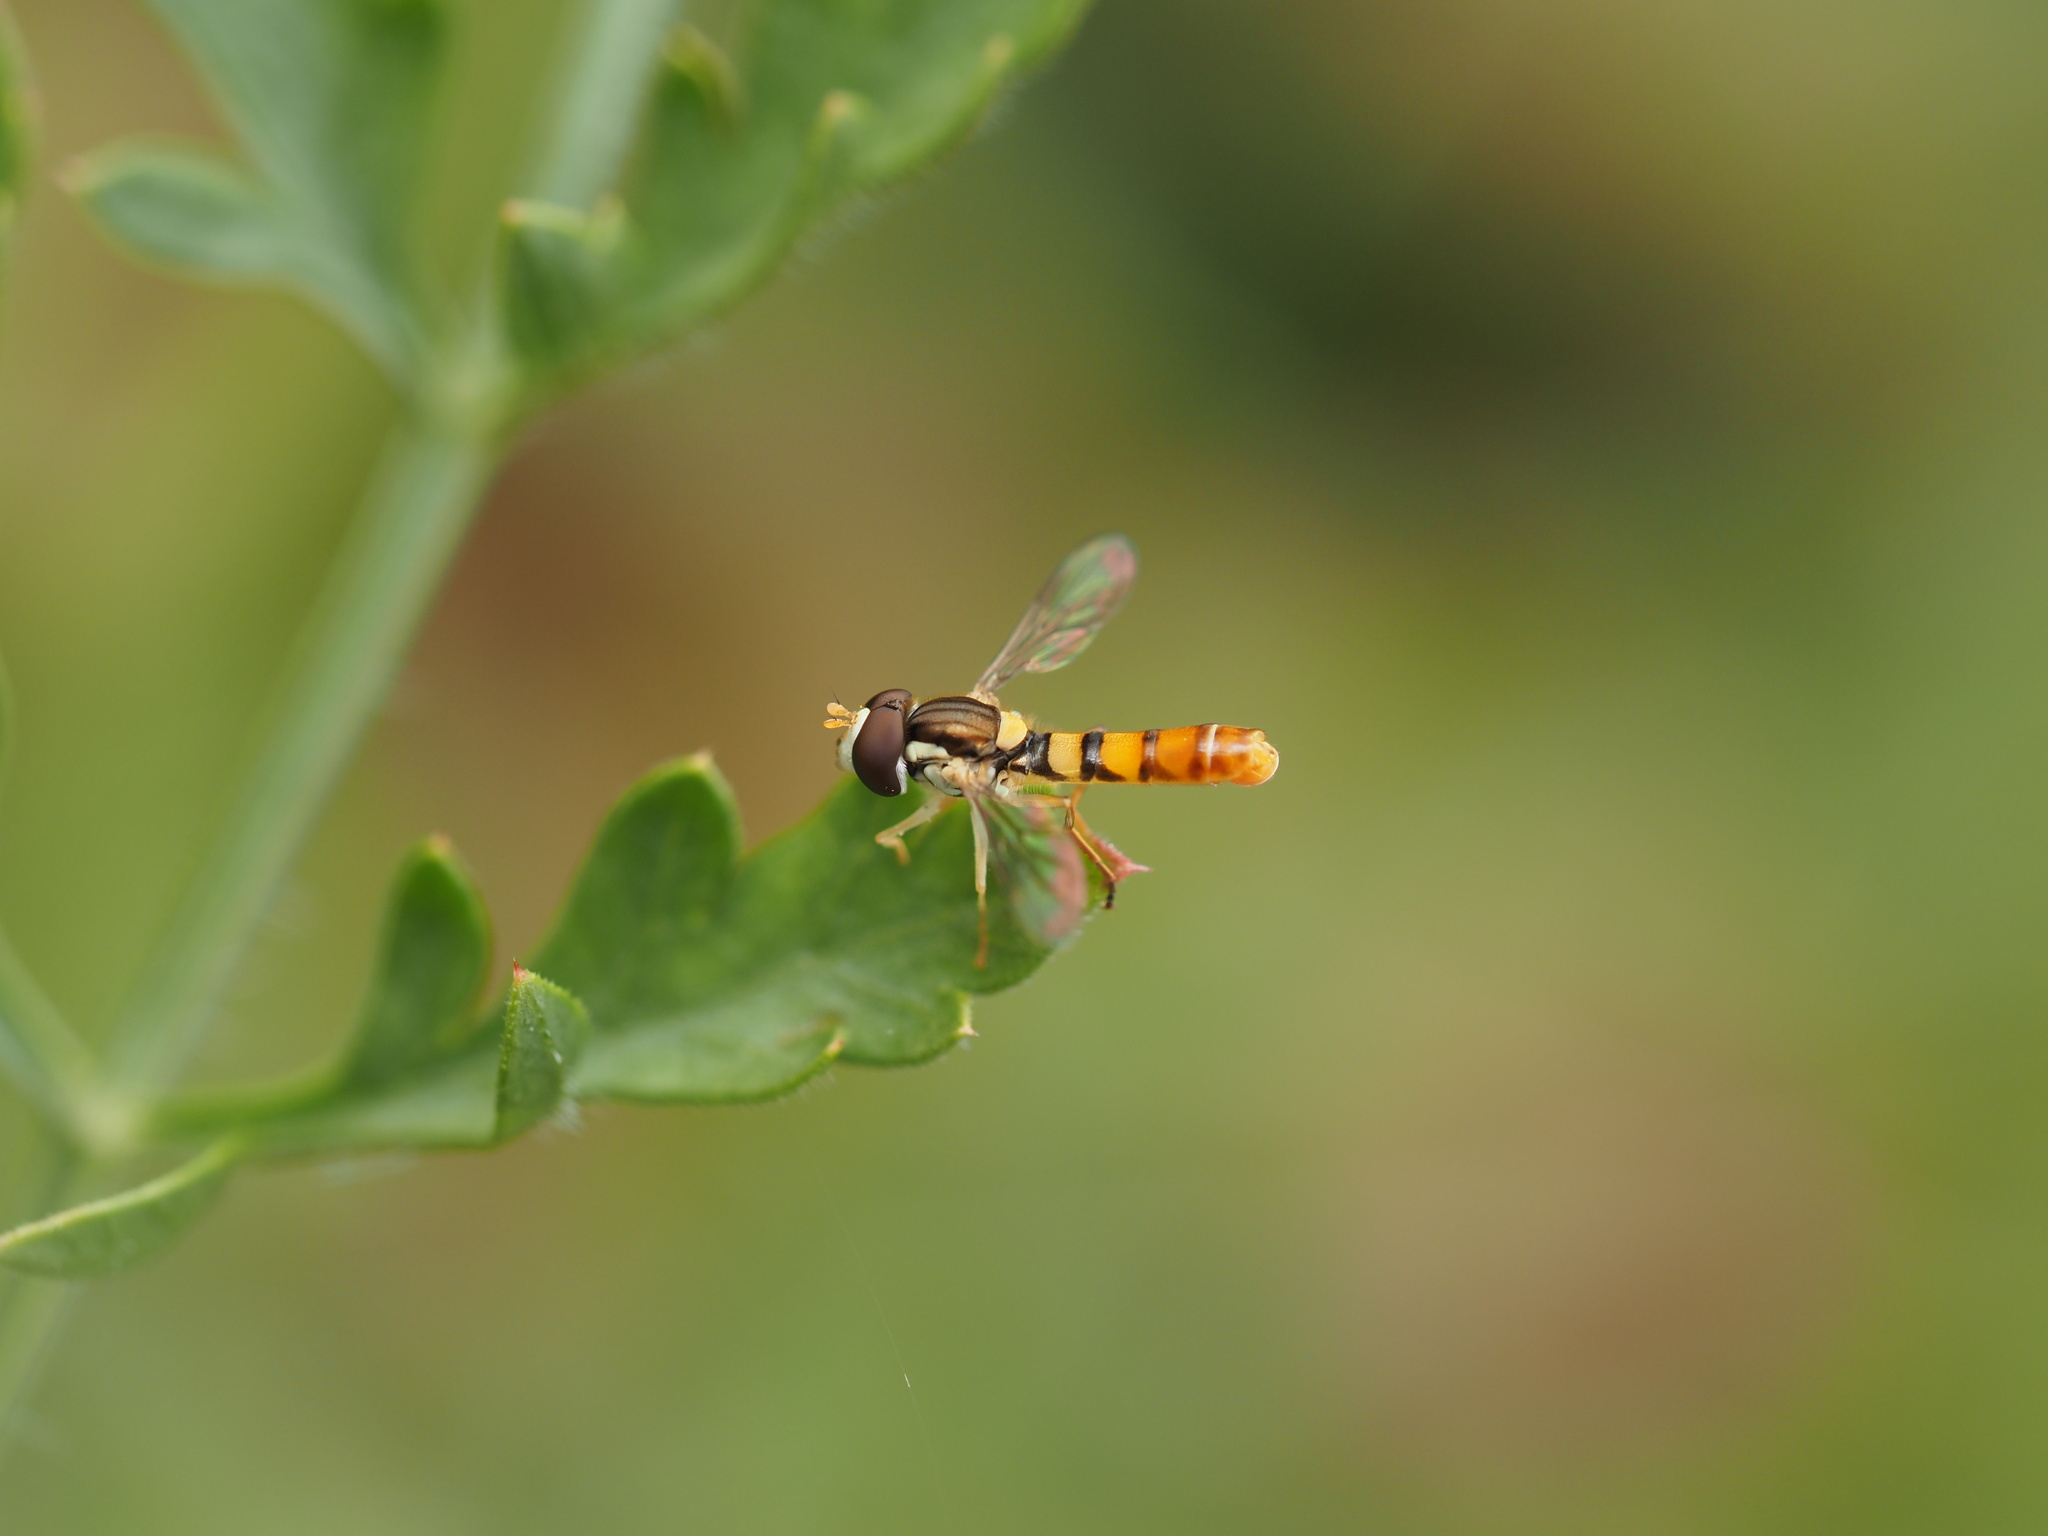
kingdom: Animalia
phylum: Arthropoda
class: Insecta
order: Diptera
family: Syrphidae
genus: Sphaerophoria
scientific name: Sphaerophoria contigua
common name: Tufted globetail
